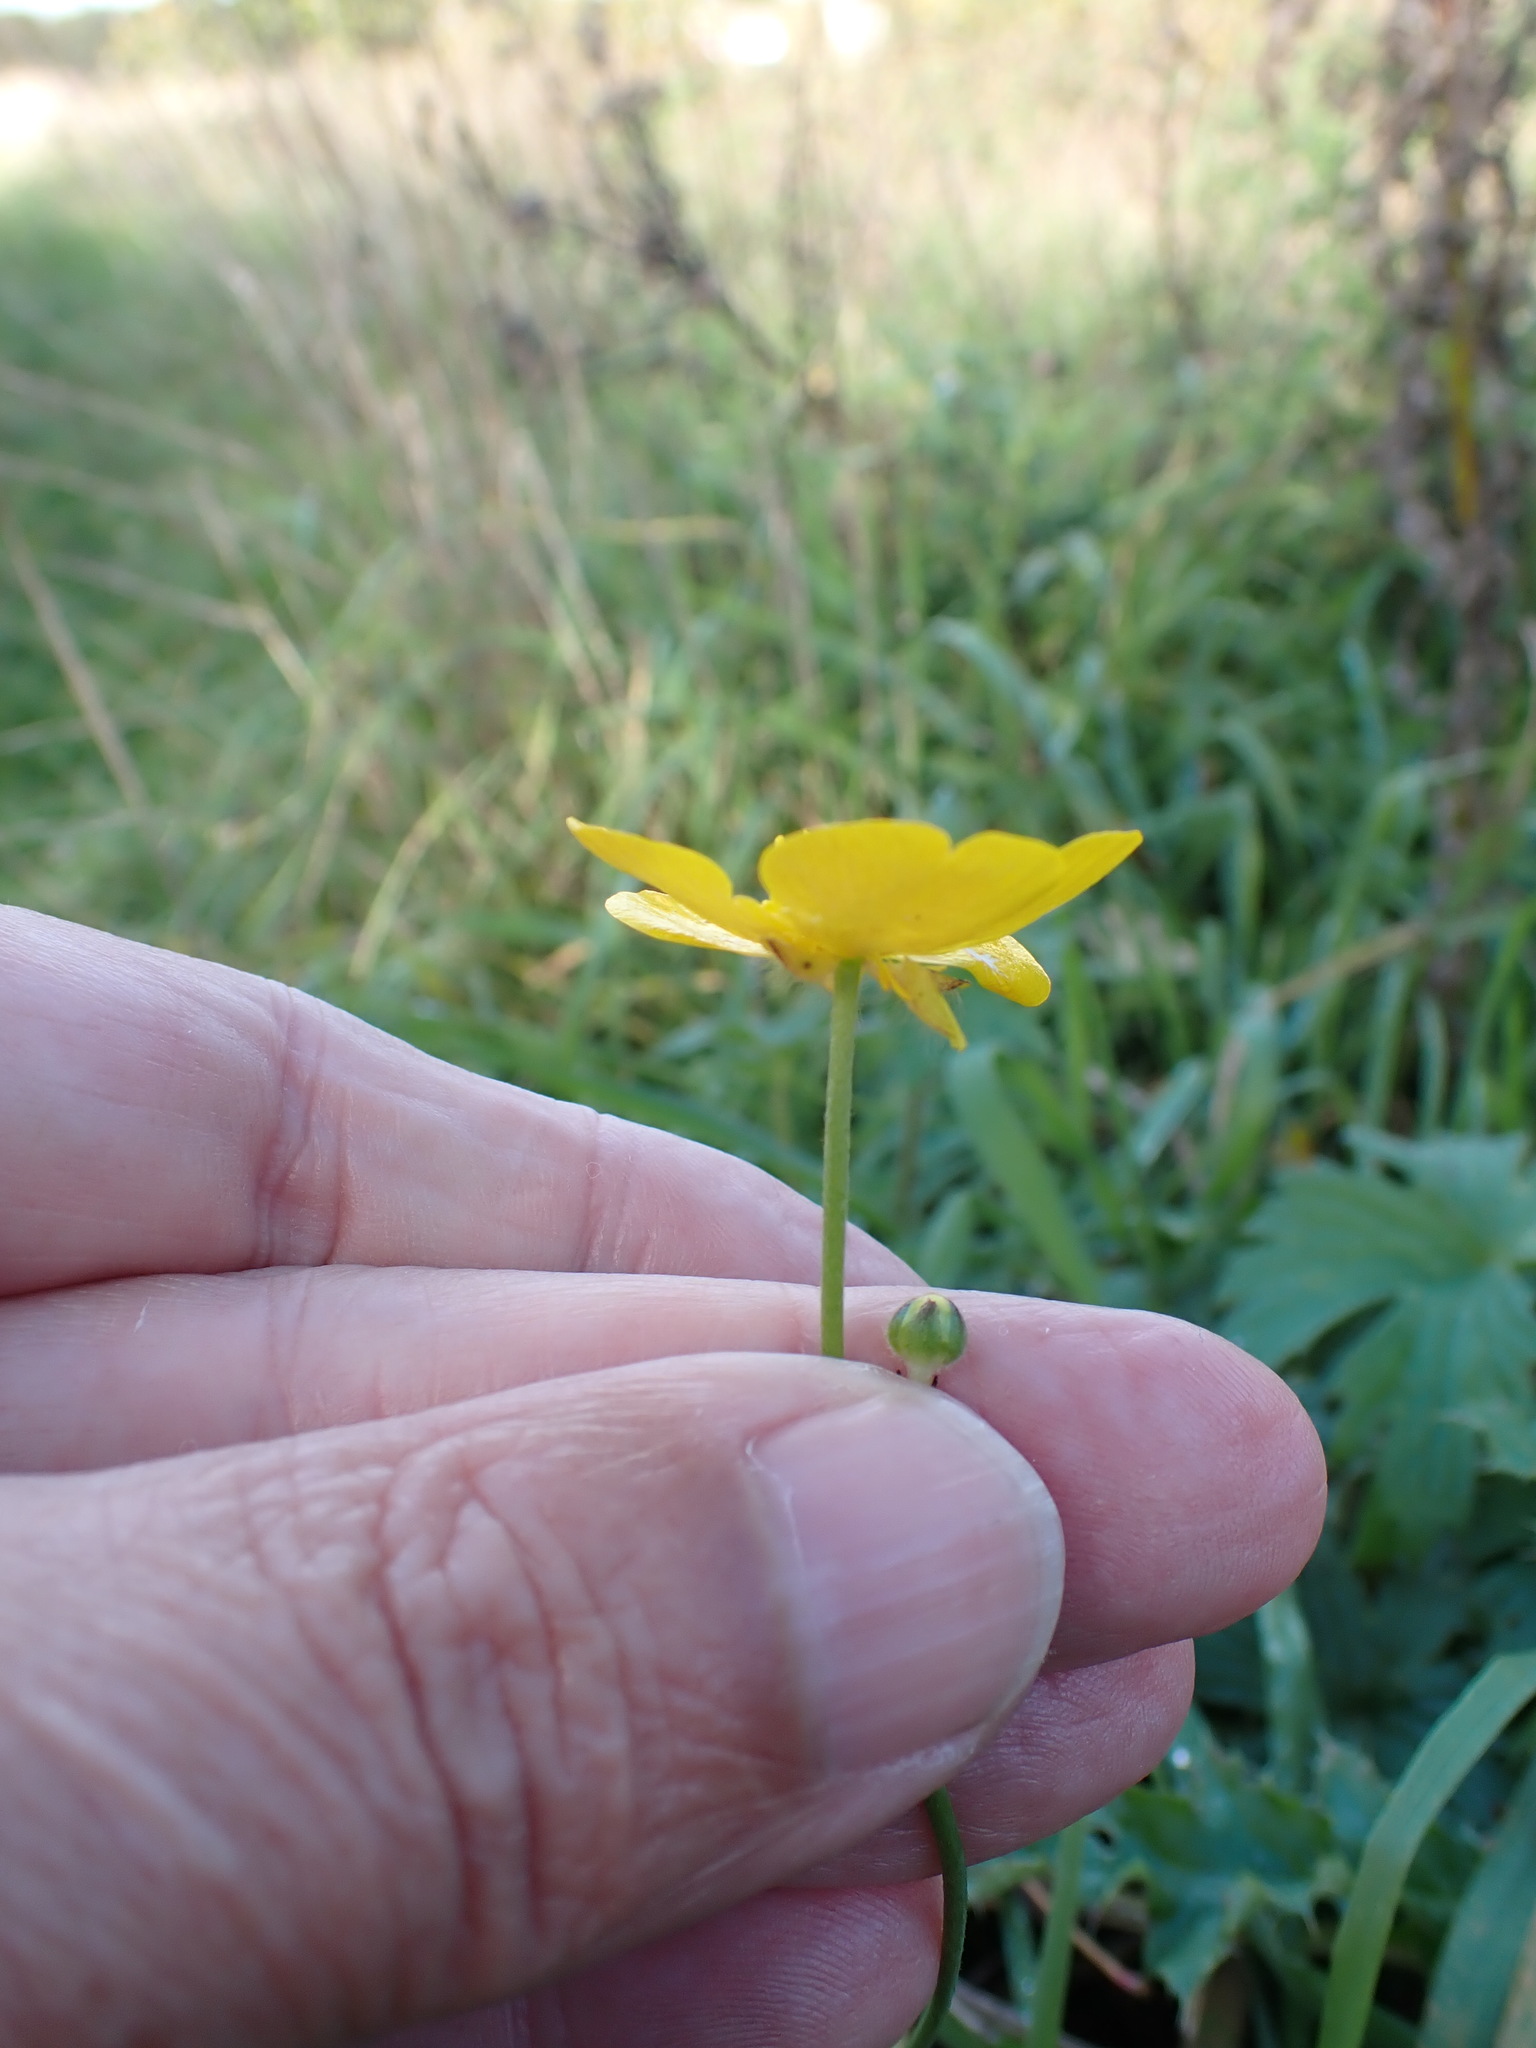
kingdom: Plantae
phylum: Tracheophyta
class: Magnoliopsida
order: Ranunculales
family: Ranunculaceae
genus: Ranunculus
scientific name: Ranunculus acris
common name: Meadow buttercup
